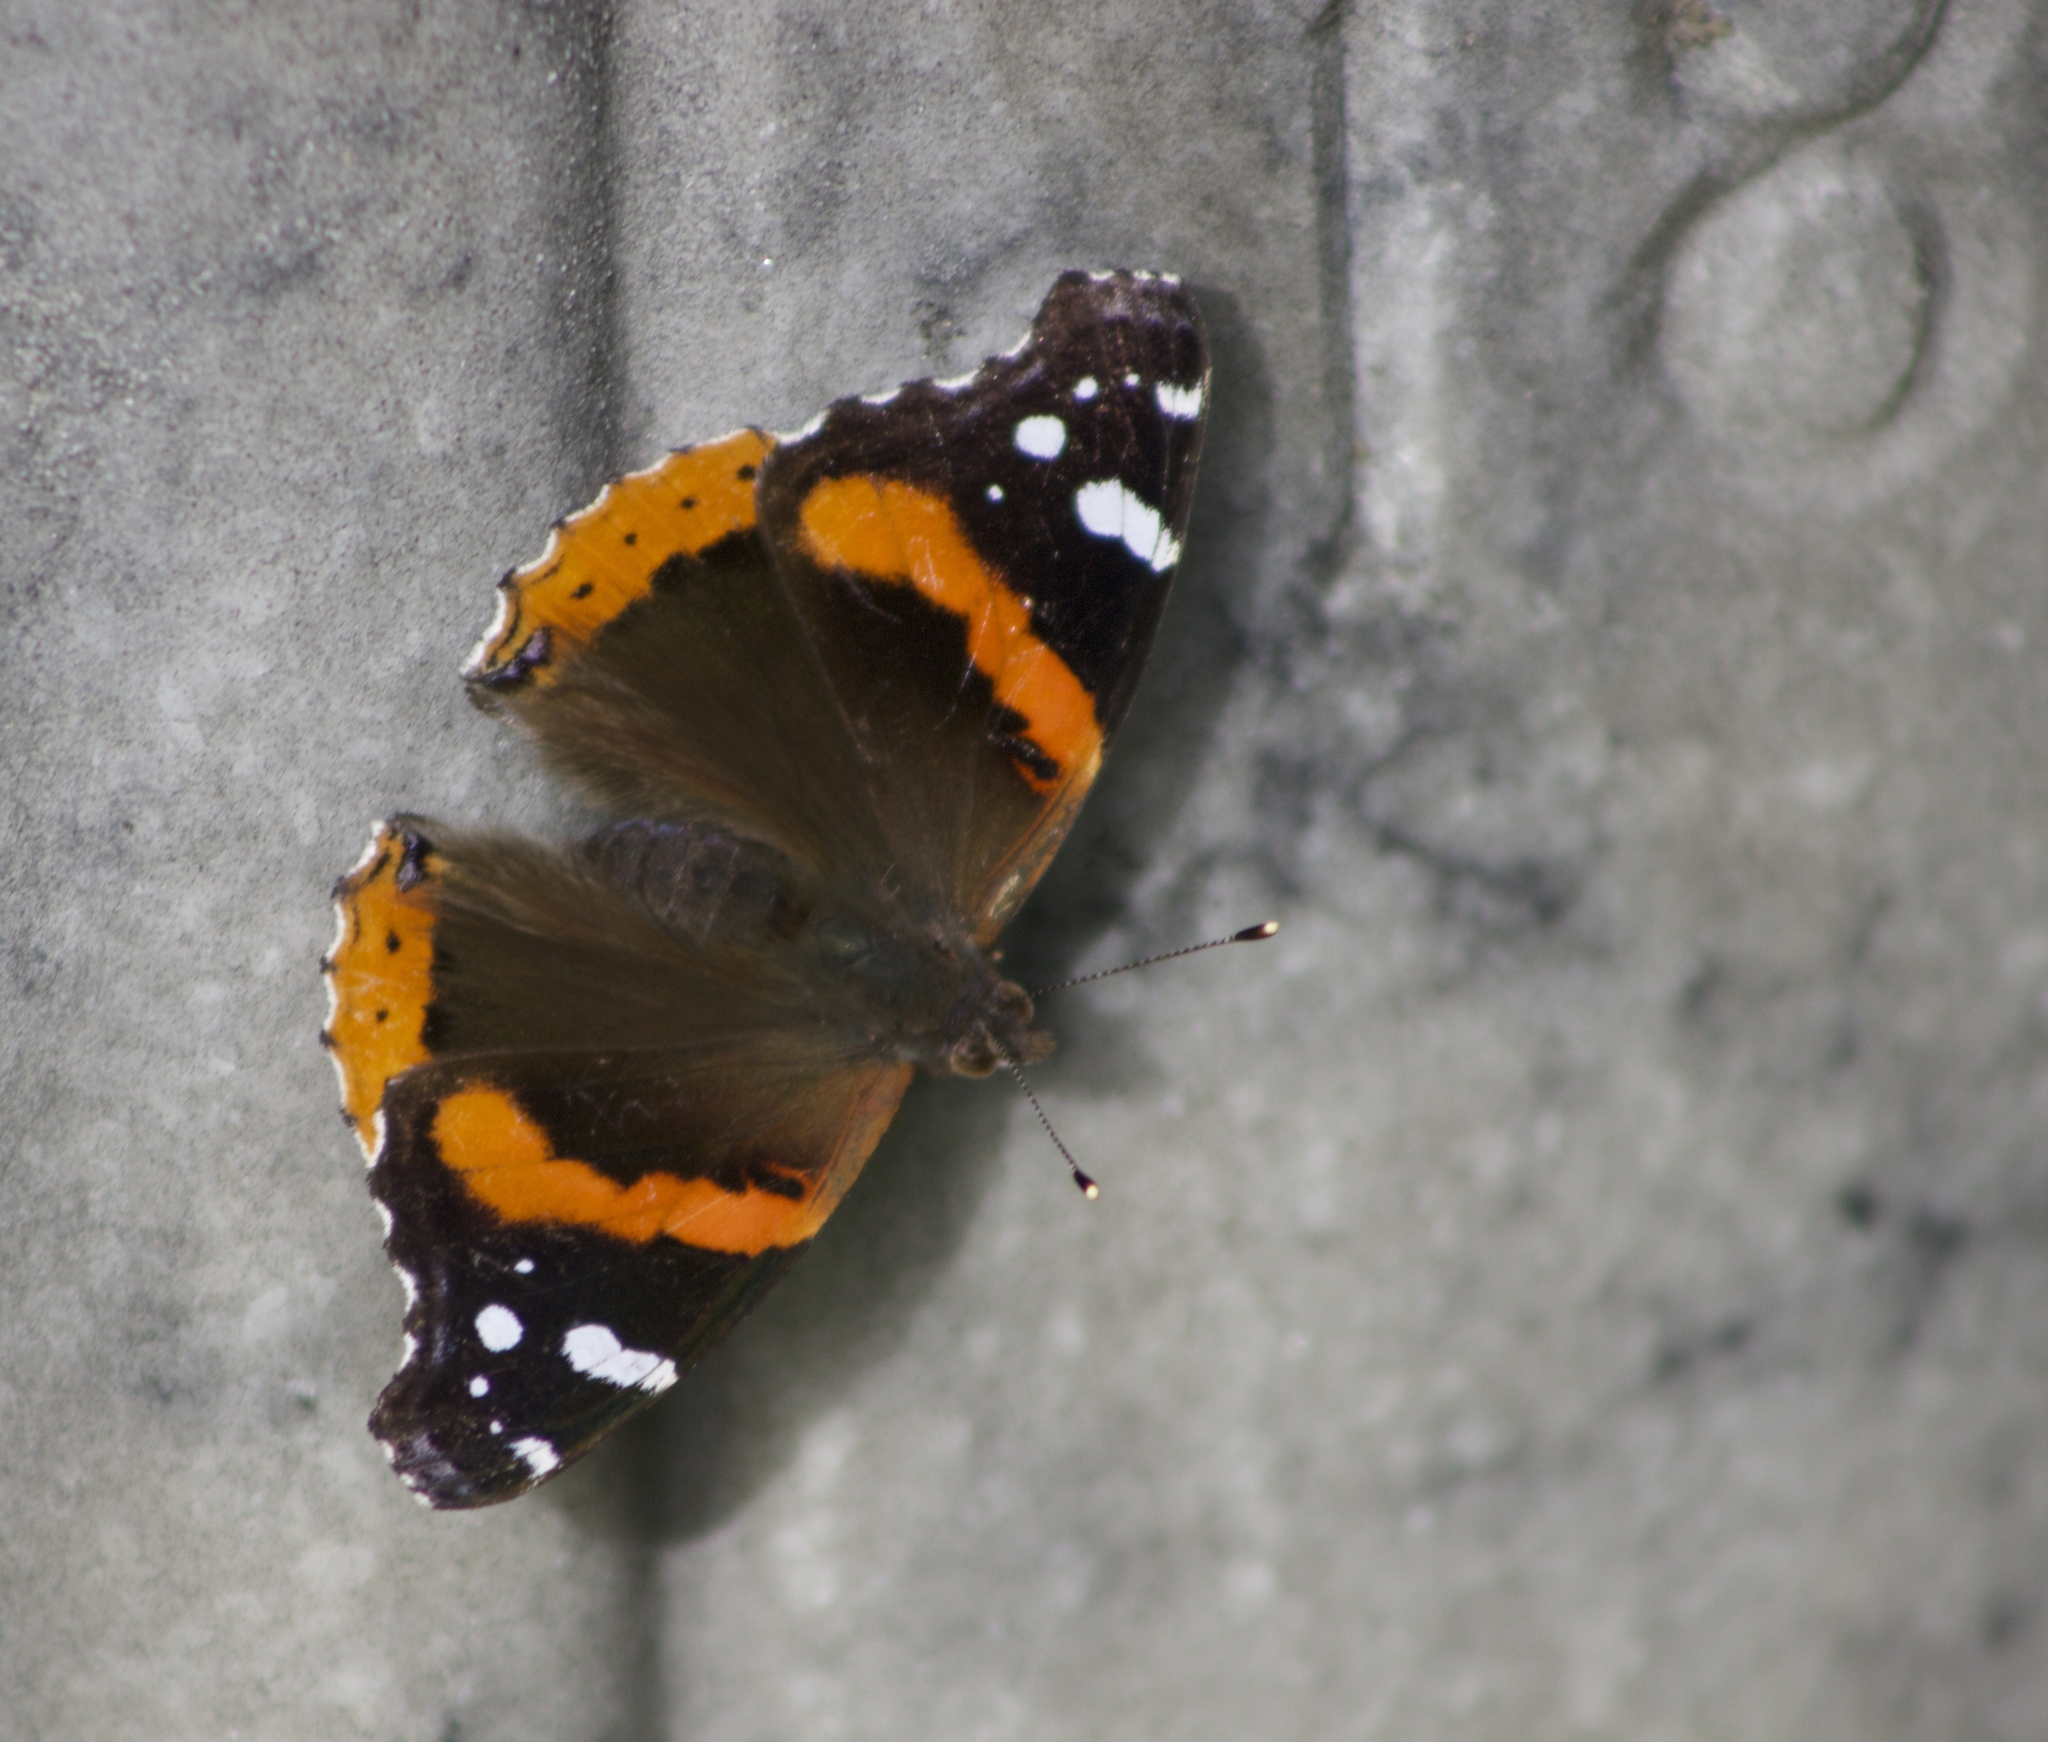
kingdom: Animalia
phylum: Arthropoda
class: Insecta
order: Lepidoptera
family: Nymphalidae
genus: Vanessa
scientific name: Vanessa atalanta
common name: Red admiral
